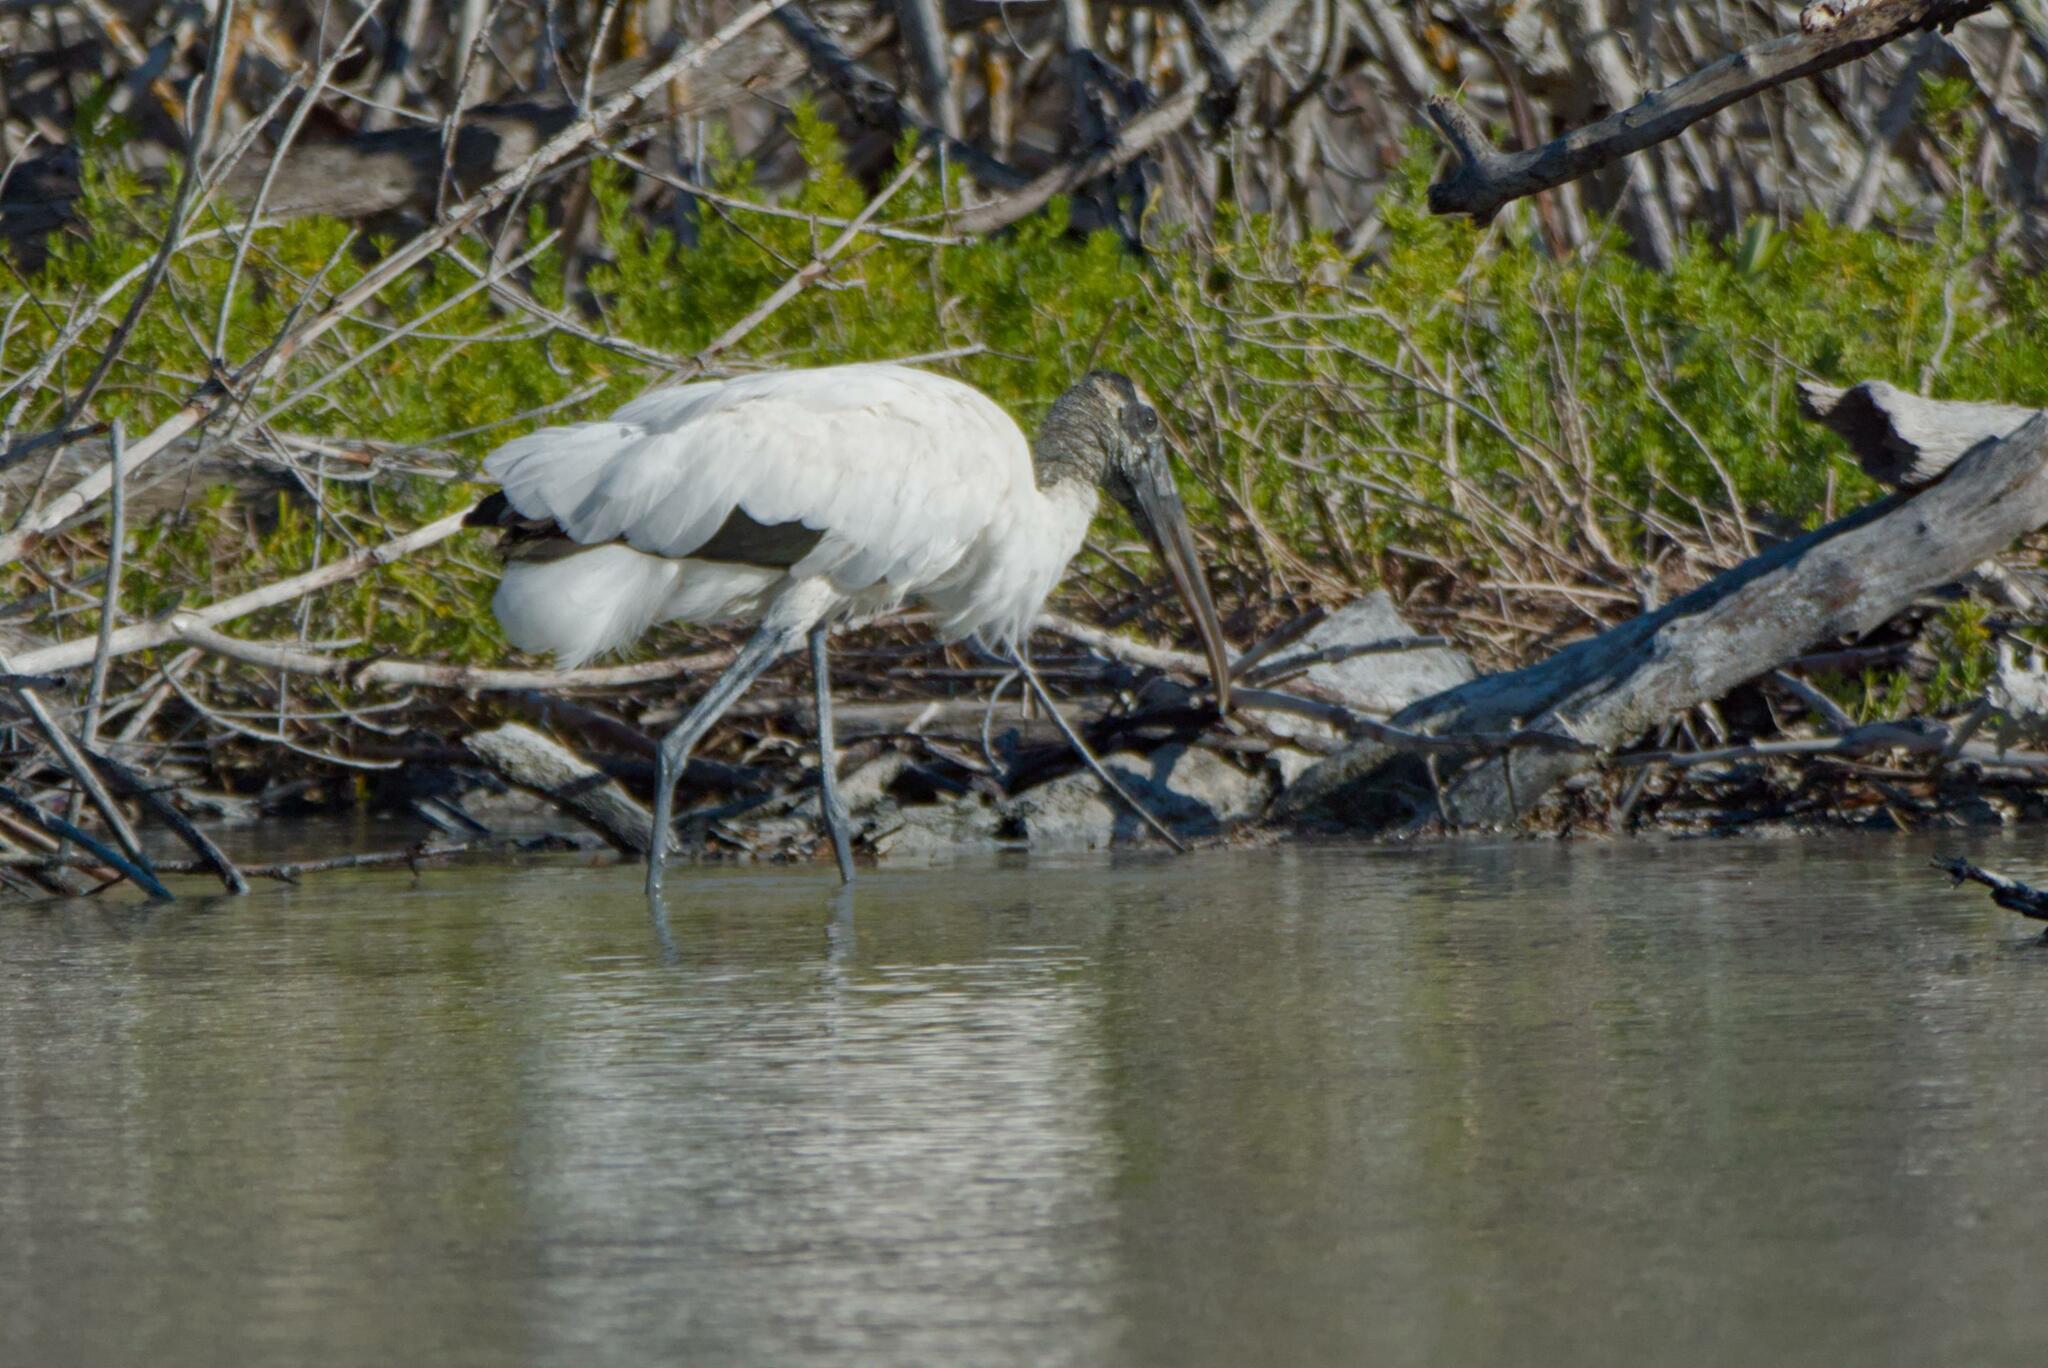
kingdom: Animalia
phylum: Chordata
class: Aves
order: Ciconiiformes
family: Ciconiidae
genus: Mycteria
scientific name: Mycteria americana
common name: Wood stork
